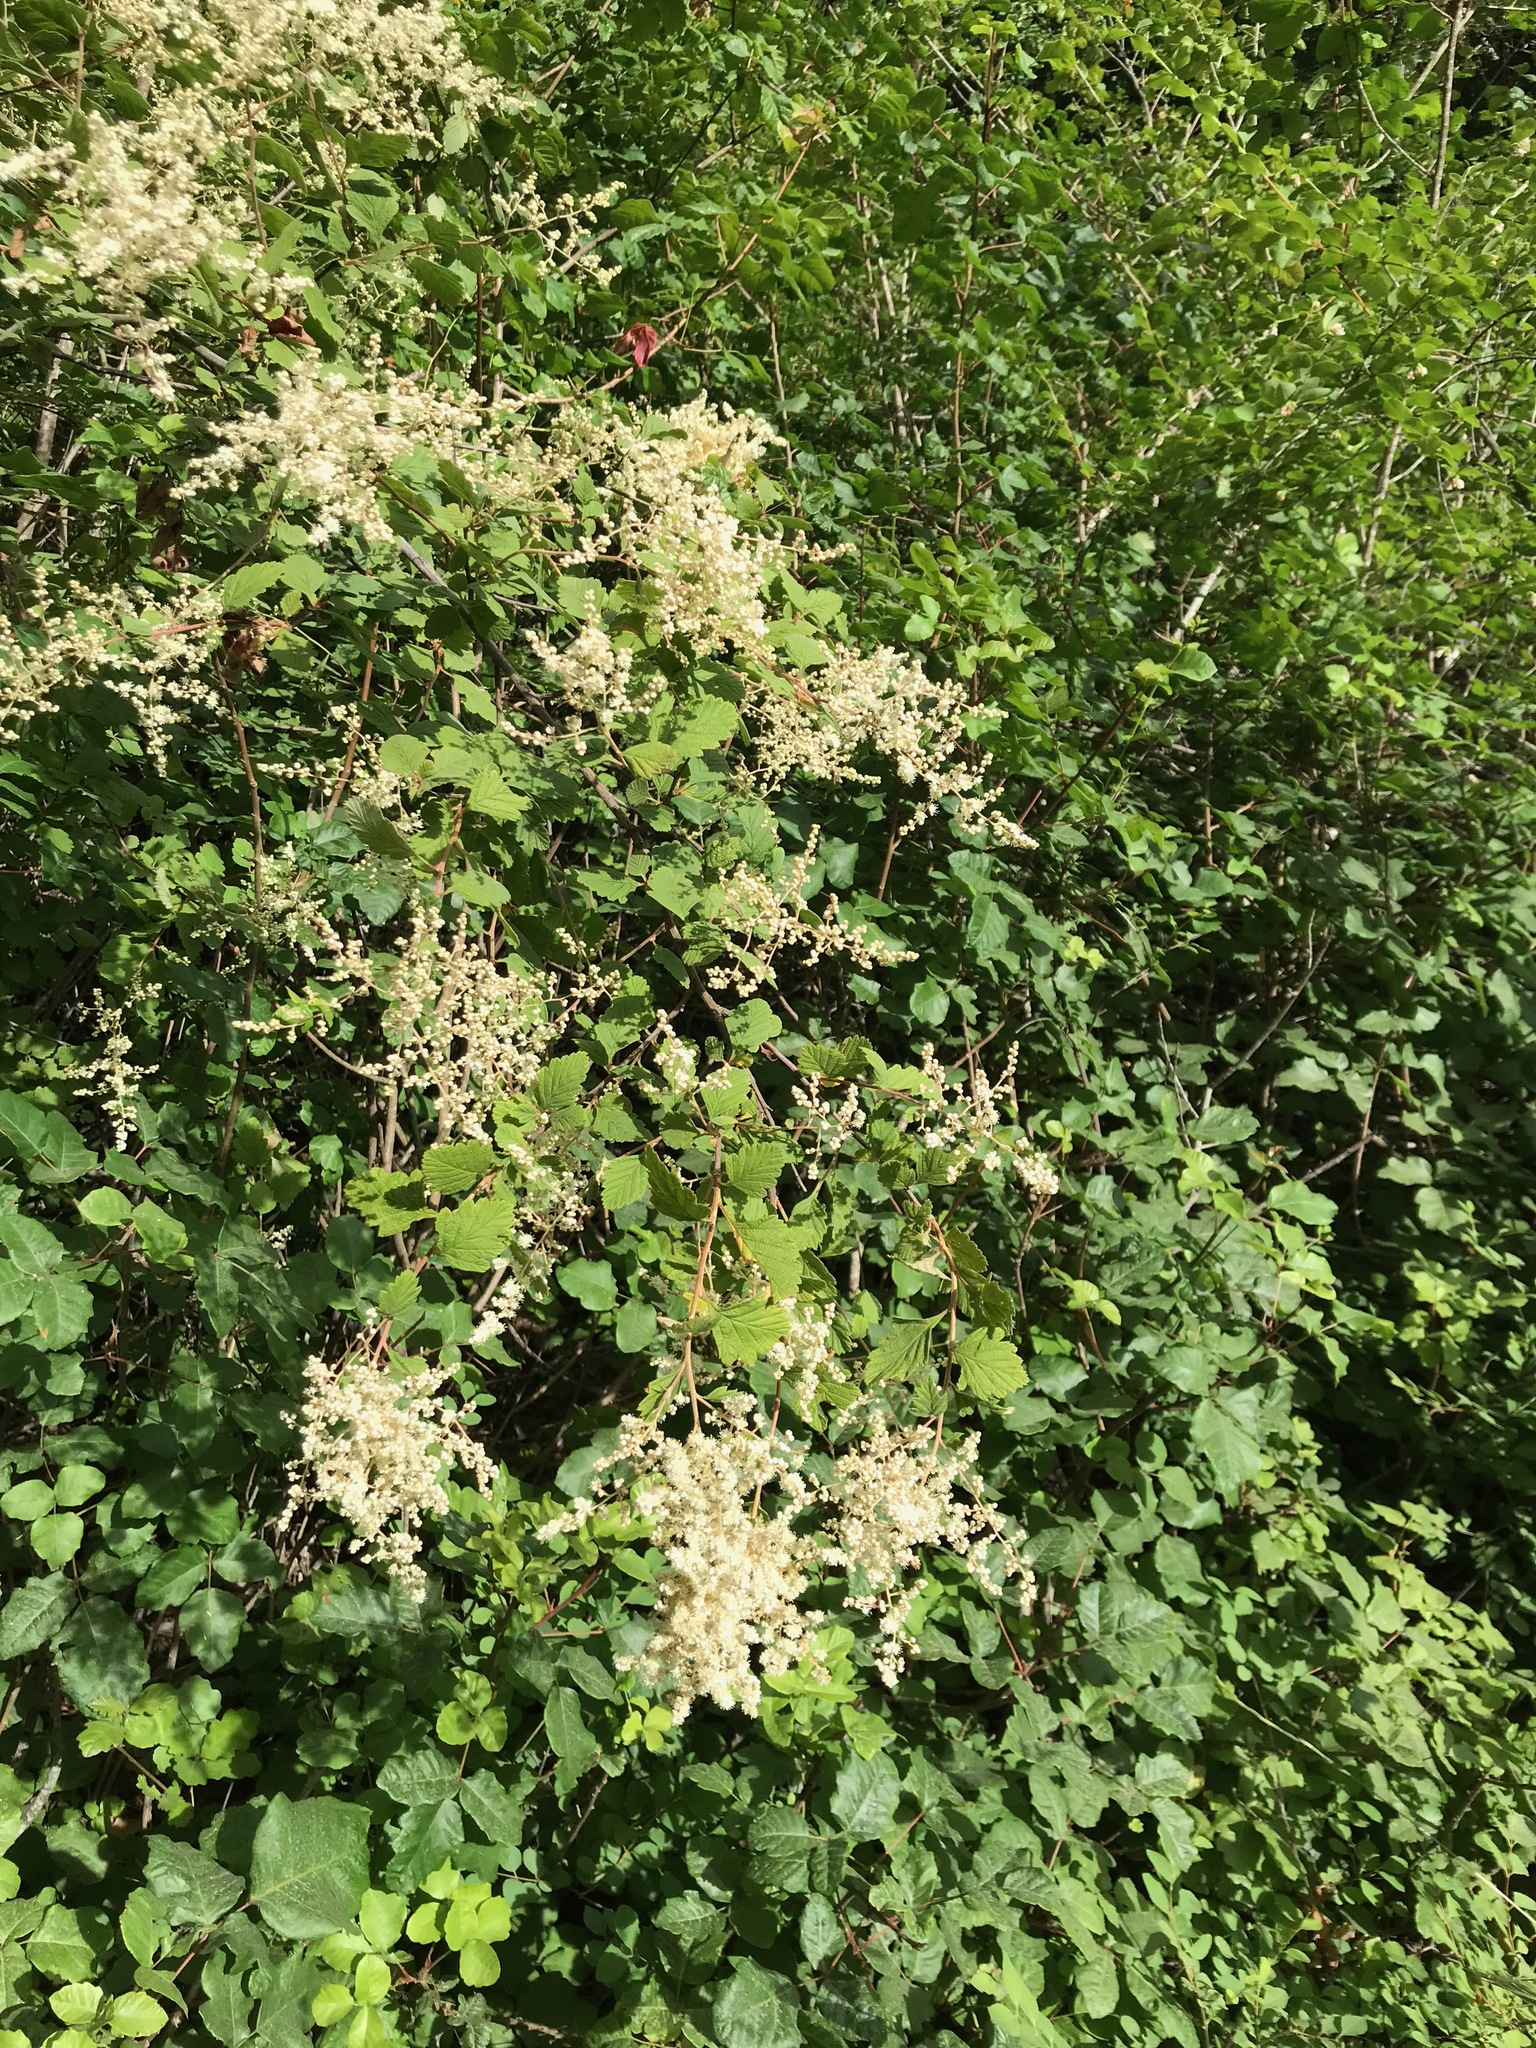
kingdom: Plantae
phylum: Tracheophyta
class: Magnoliopsida
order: Rosales
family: Rosaceae
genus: Holodiscus
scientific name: Holodiscus discolor
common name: Oceanspray
